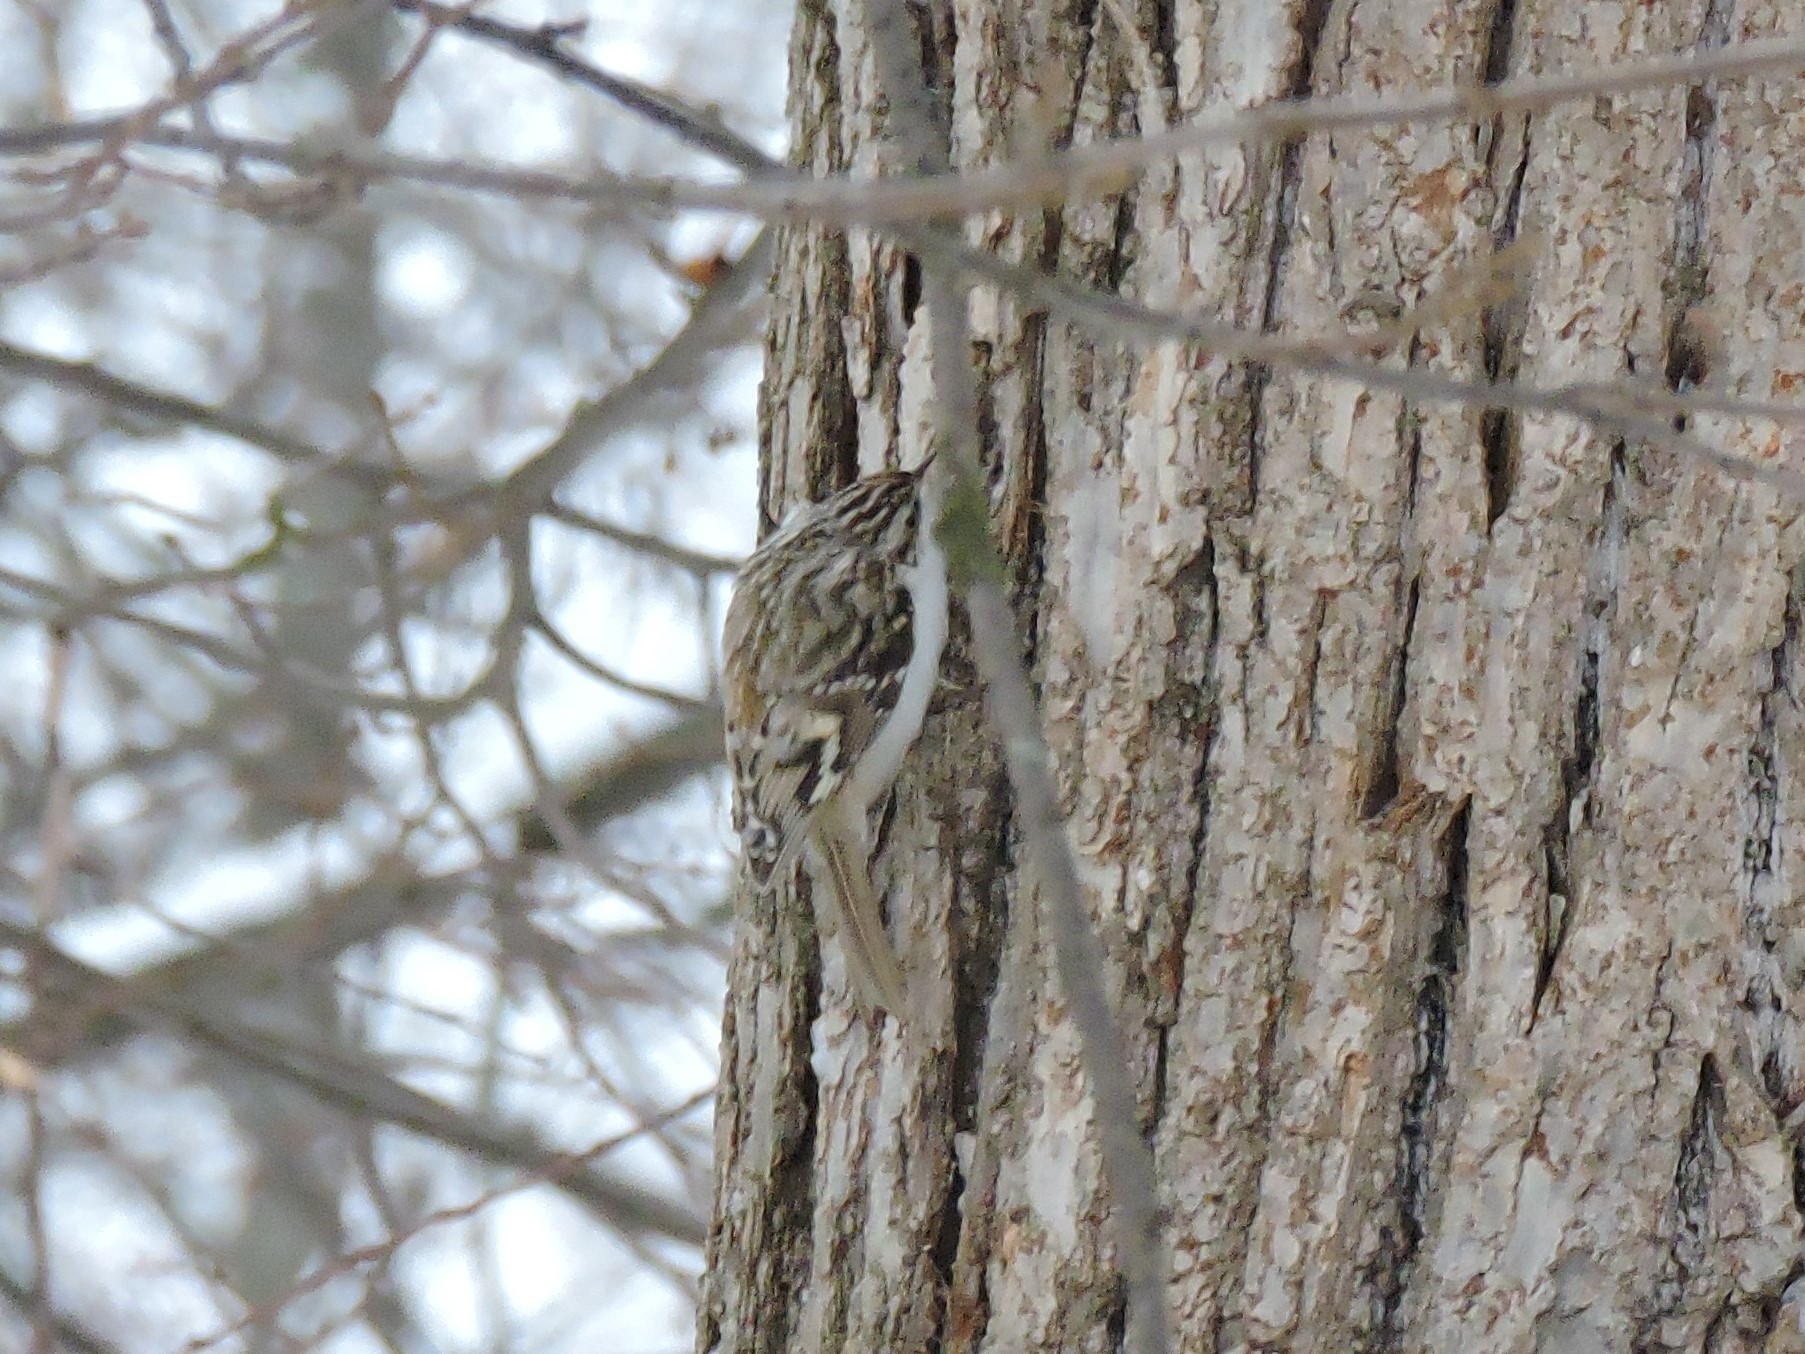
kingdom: Animalia
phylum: Chordata
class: Aves
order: Passeriformes
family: Certhiidae
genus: Certhia
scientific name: Certhia familiaris
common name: Eurasian treecreeper
